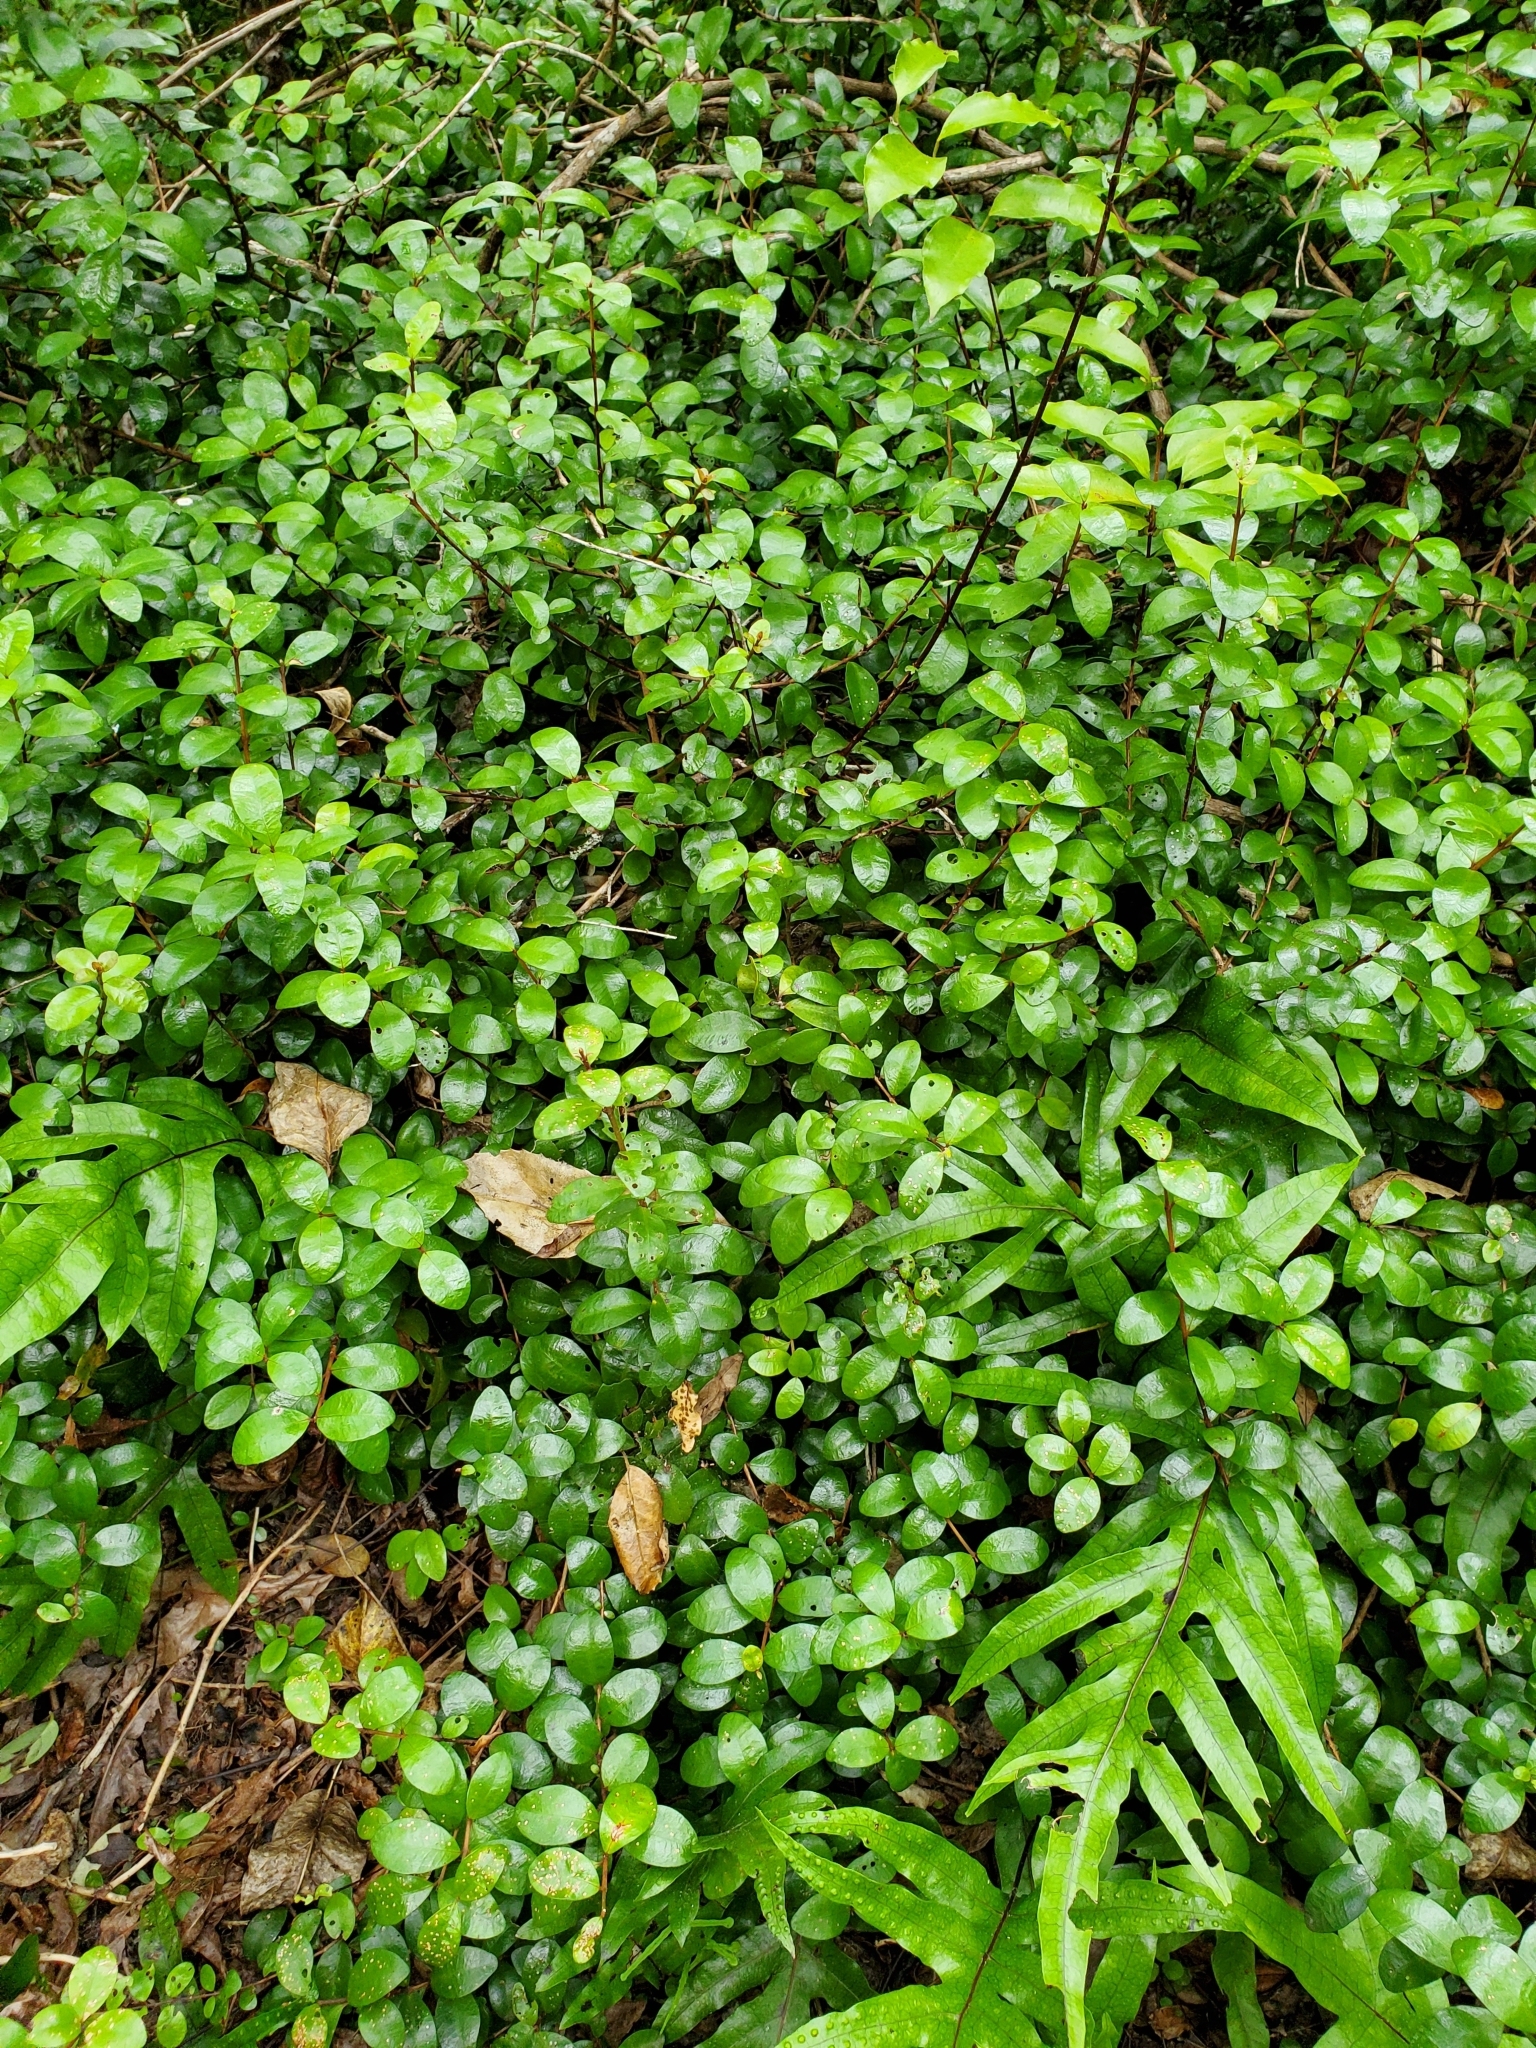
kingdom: Plantae
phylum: Tracheophyta
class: Magnoliopsida
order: Myrtales
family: Myrtaceae
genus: Metrosideros
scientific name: Metrosideros fulgens
